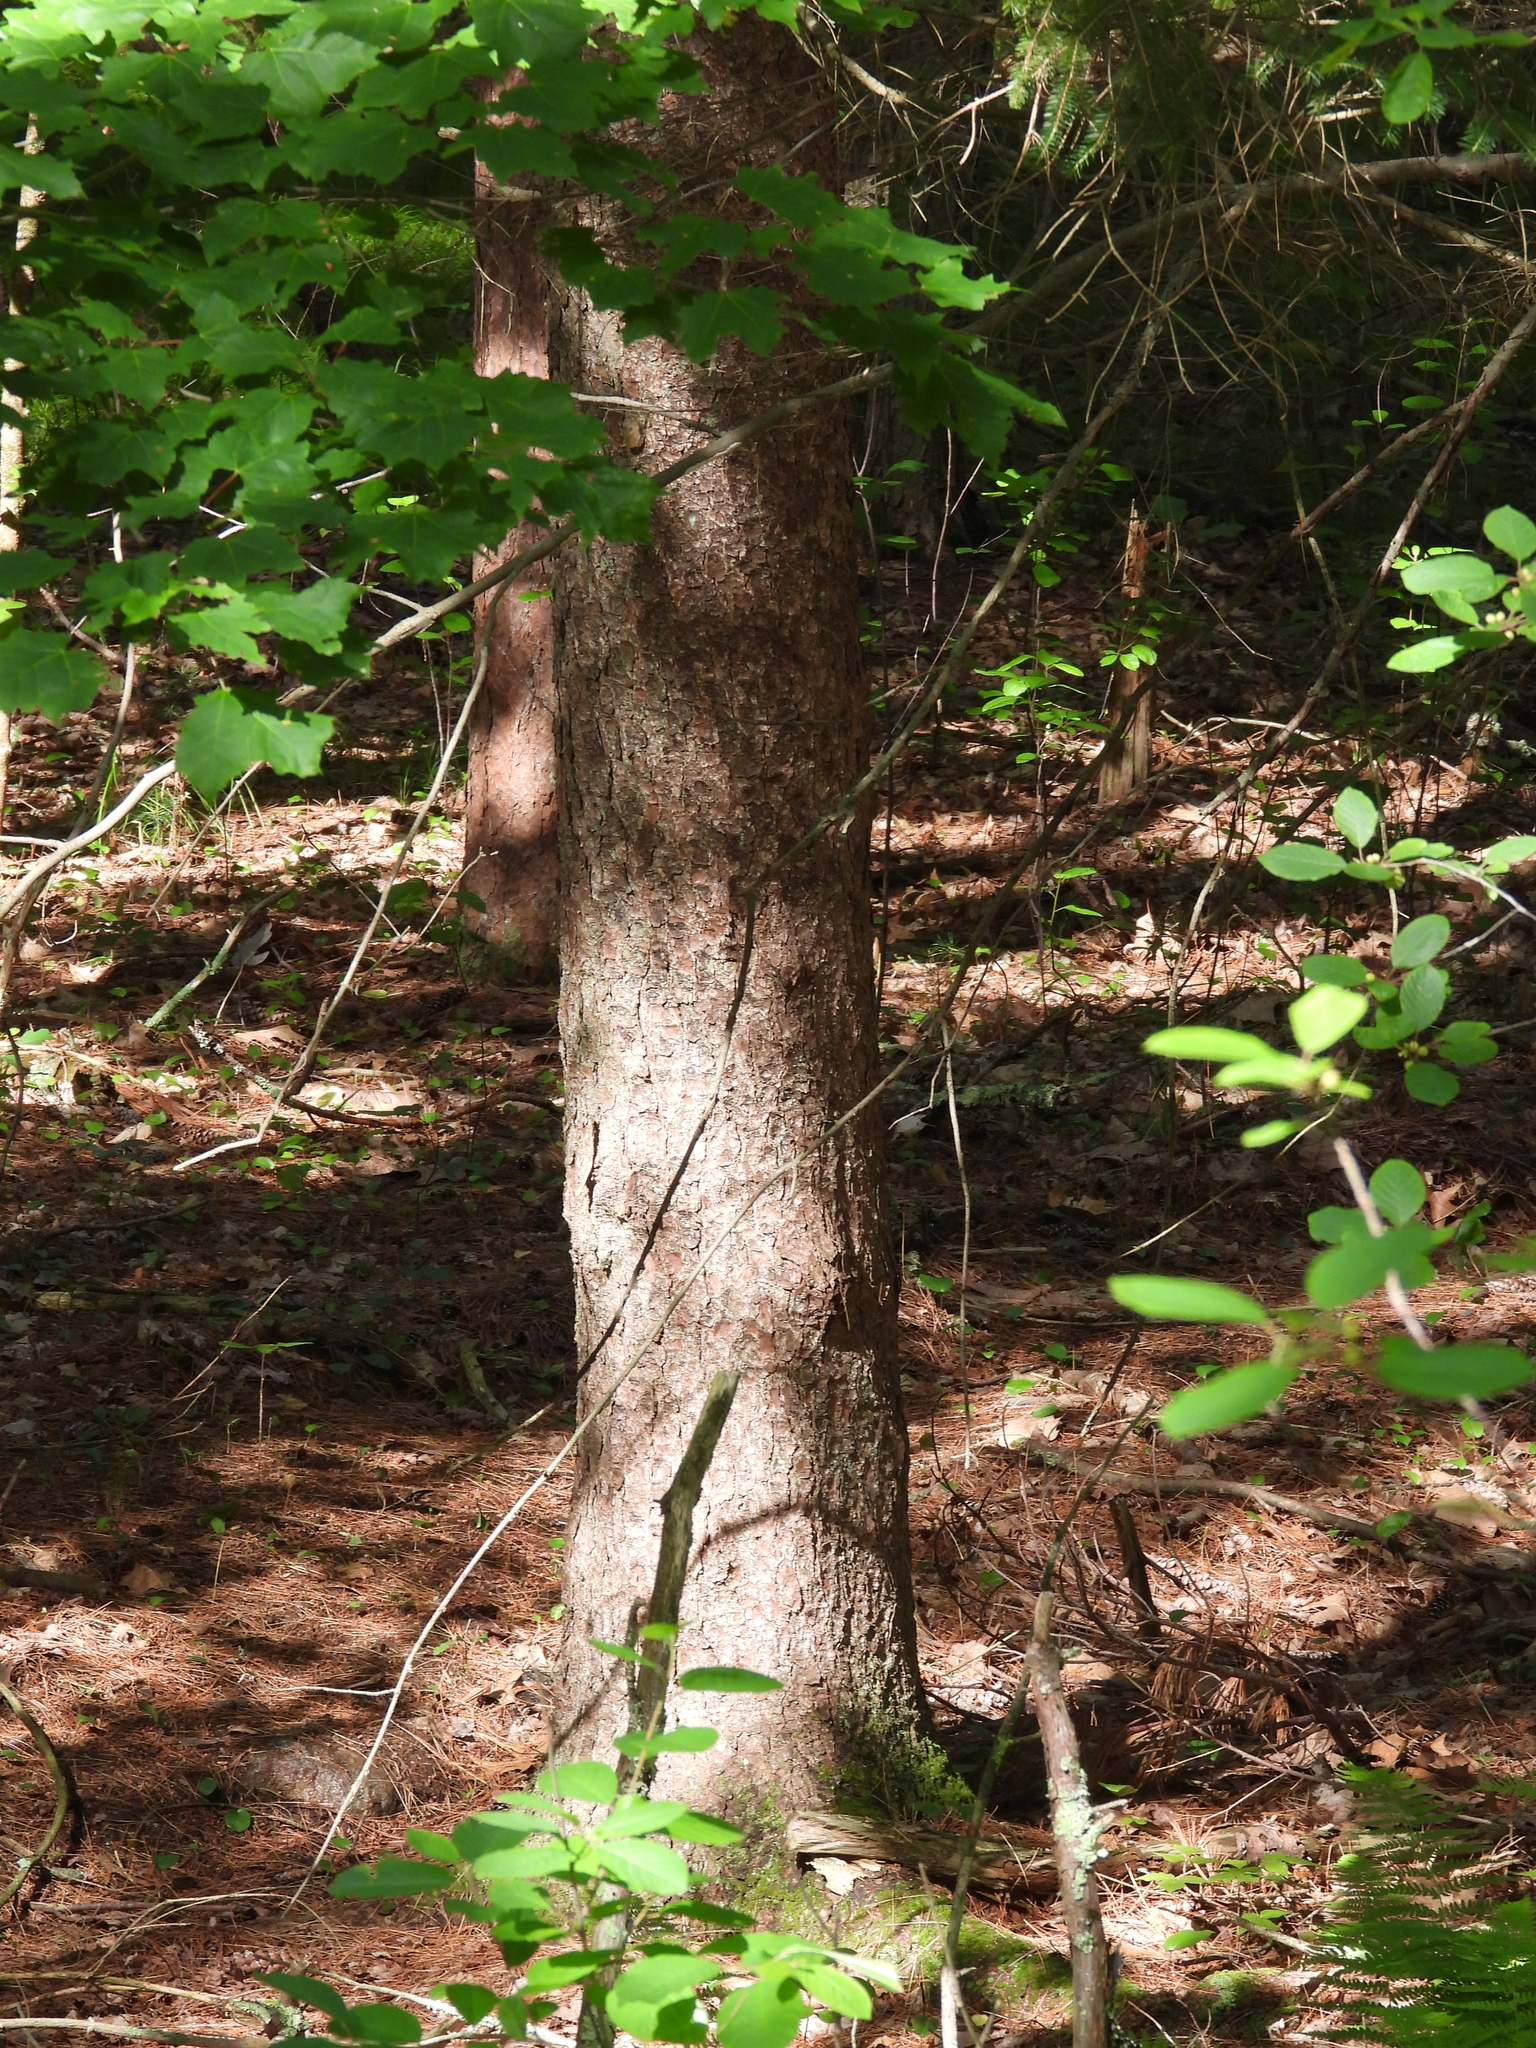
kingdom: Plantae
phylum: Tracheophyta
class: Pinopsida
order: Pinales
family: Pinaceae
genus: Picea
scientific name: Picea abies
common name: Norway spruce
